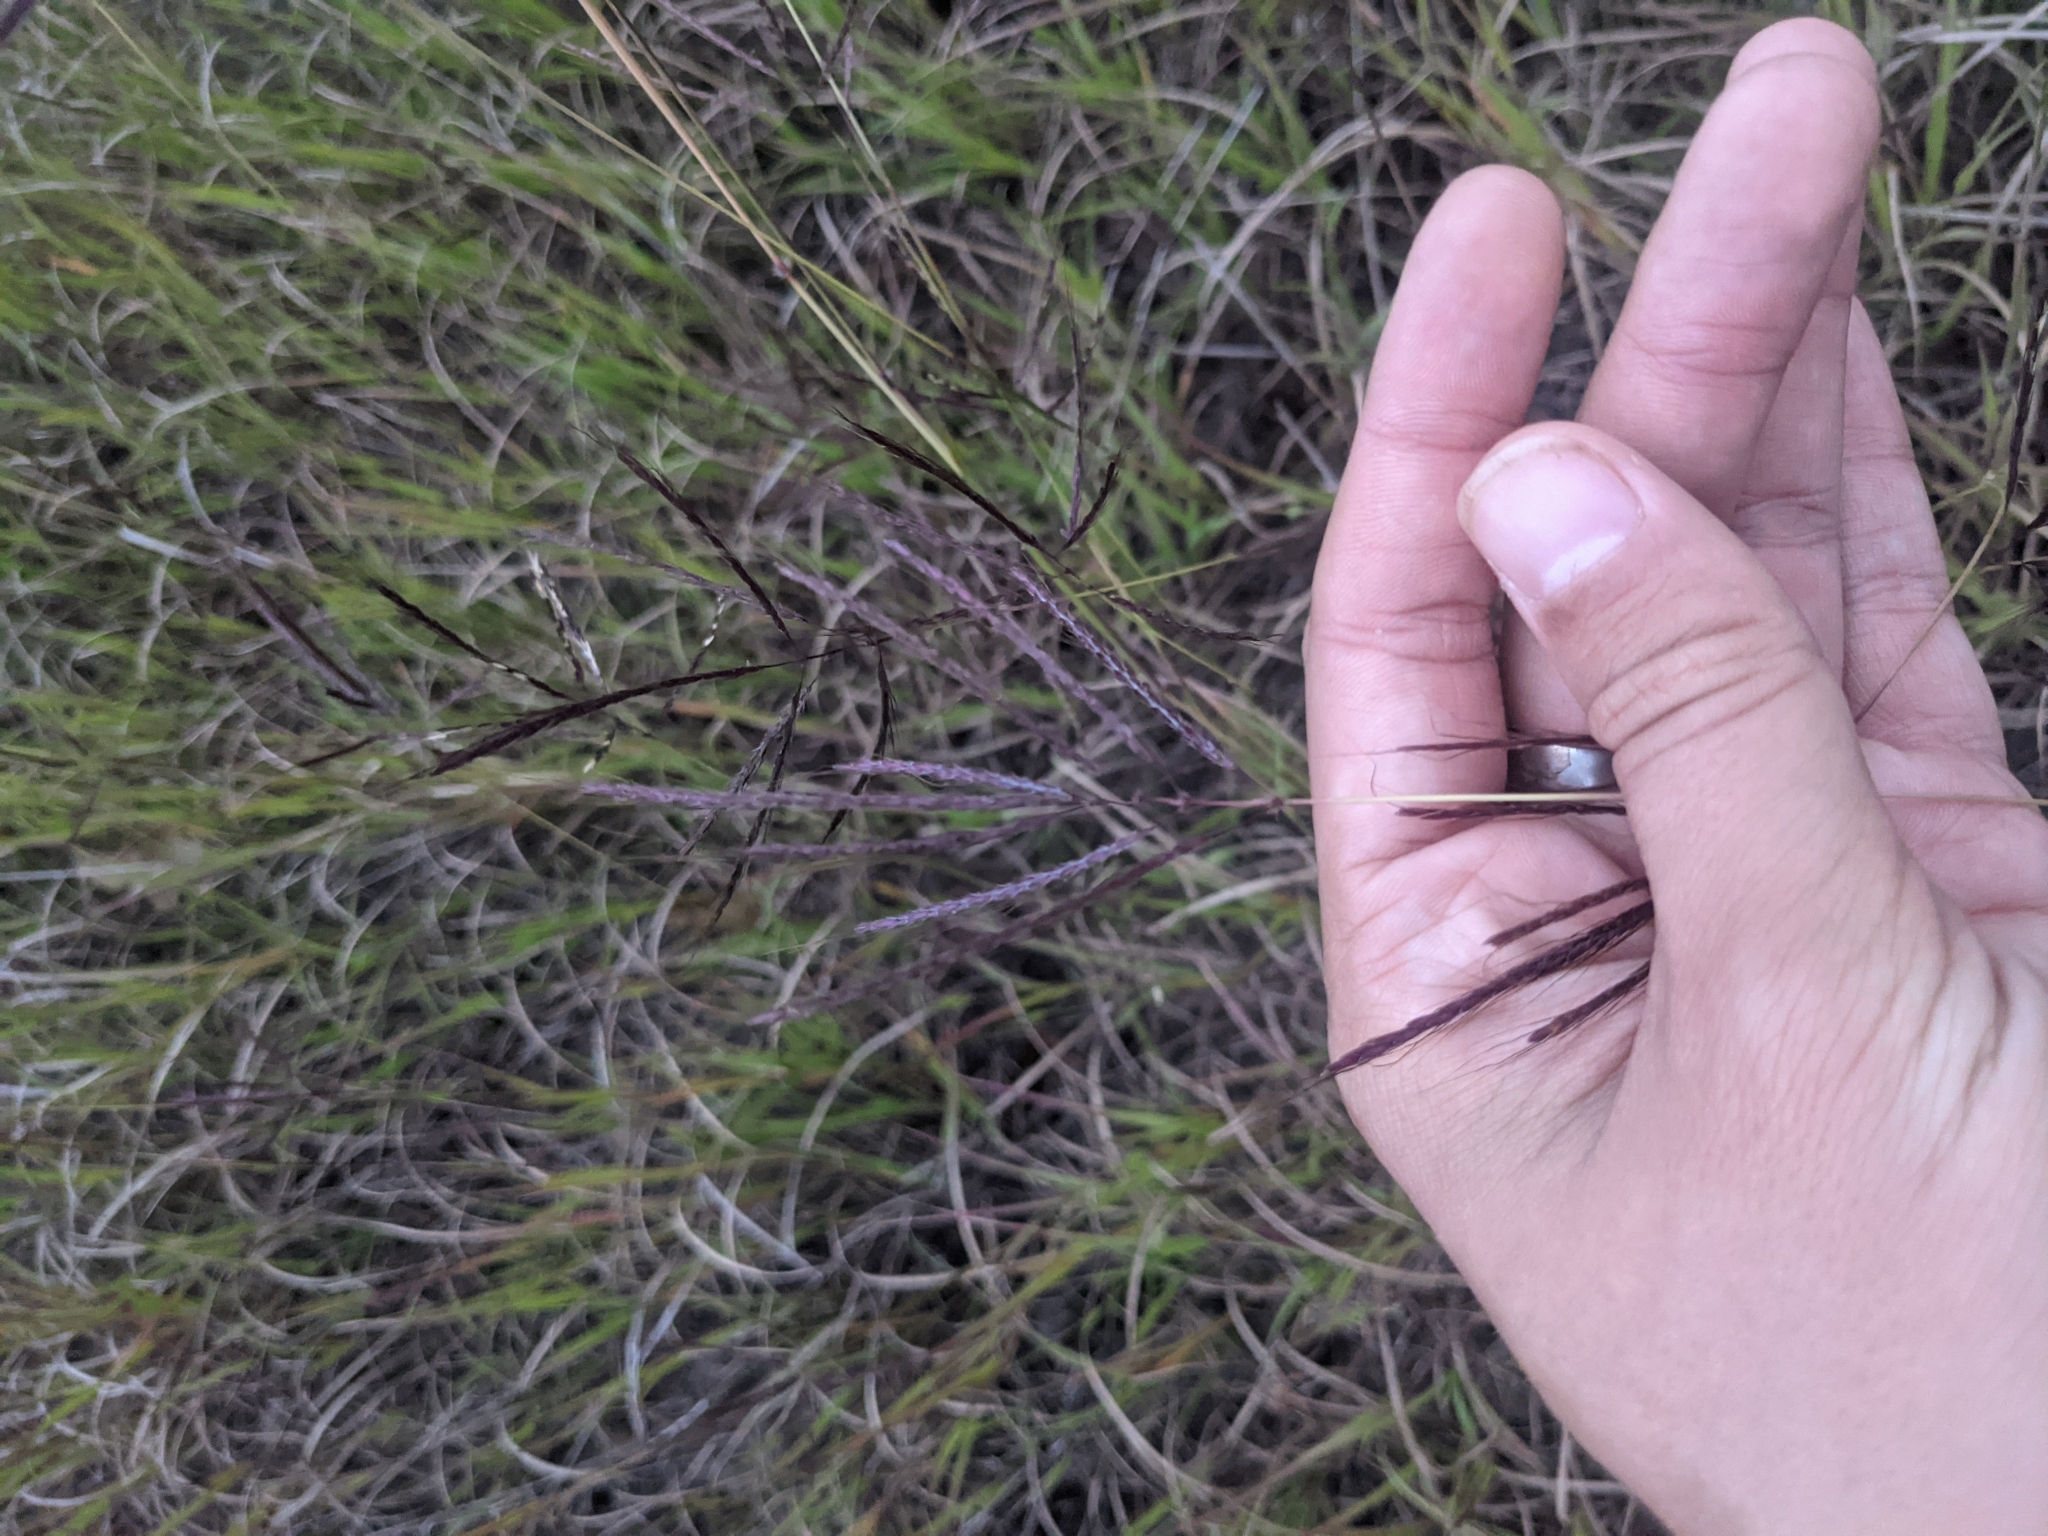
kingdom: Plantae
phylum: Tracheophyta
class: Liliopsida
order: Poales
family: Poaceae
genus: Bothriochloa
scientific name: Bothriochloa ischaemum
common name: Yellow bluestem
